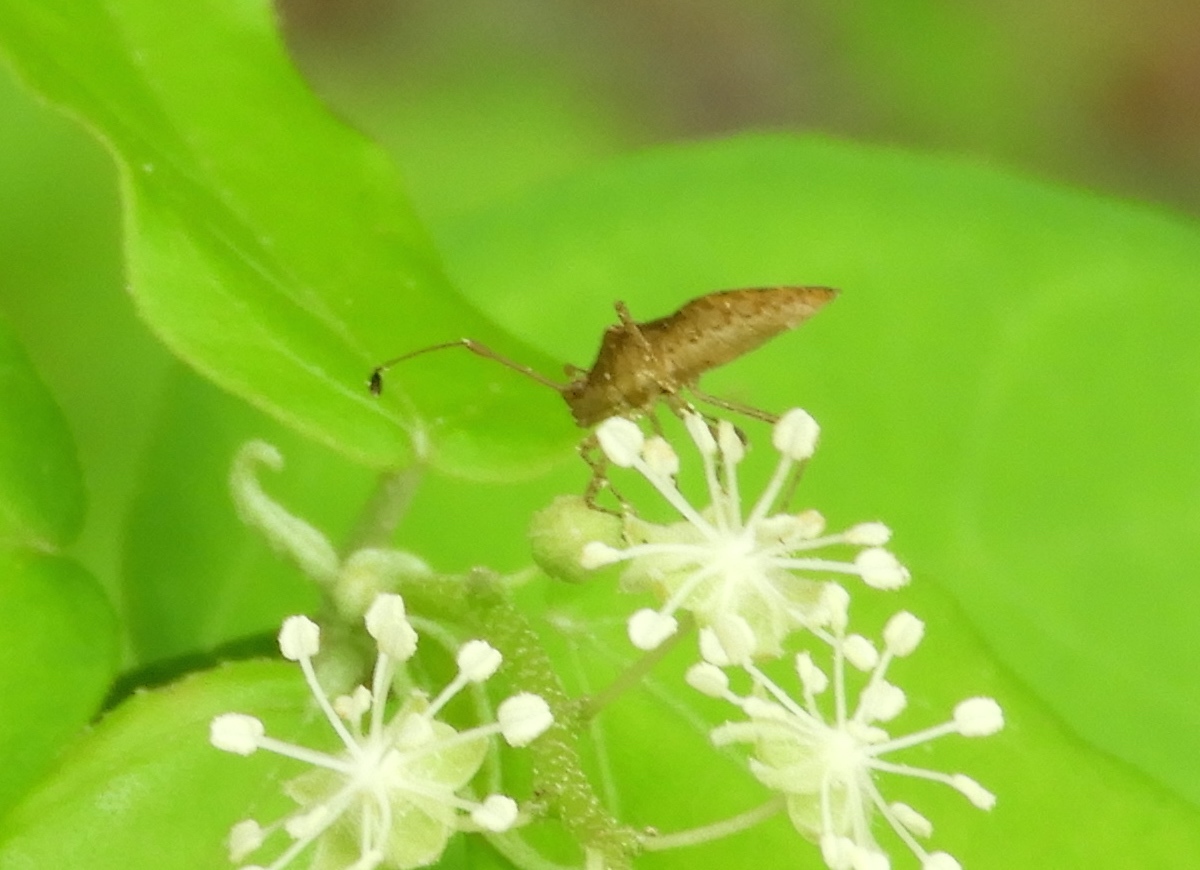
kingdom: Animalia
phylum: Arthropoda
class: Insecta
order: Hemiptera
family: Coreidae
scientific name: Coreidae
